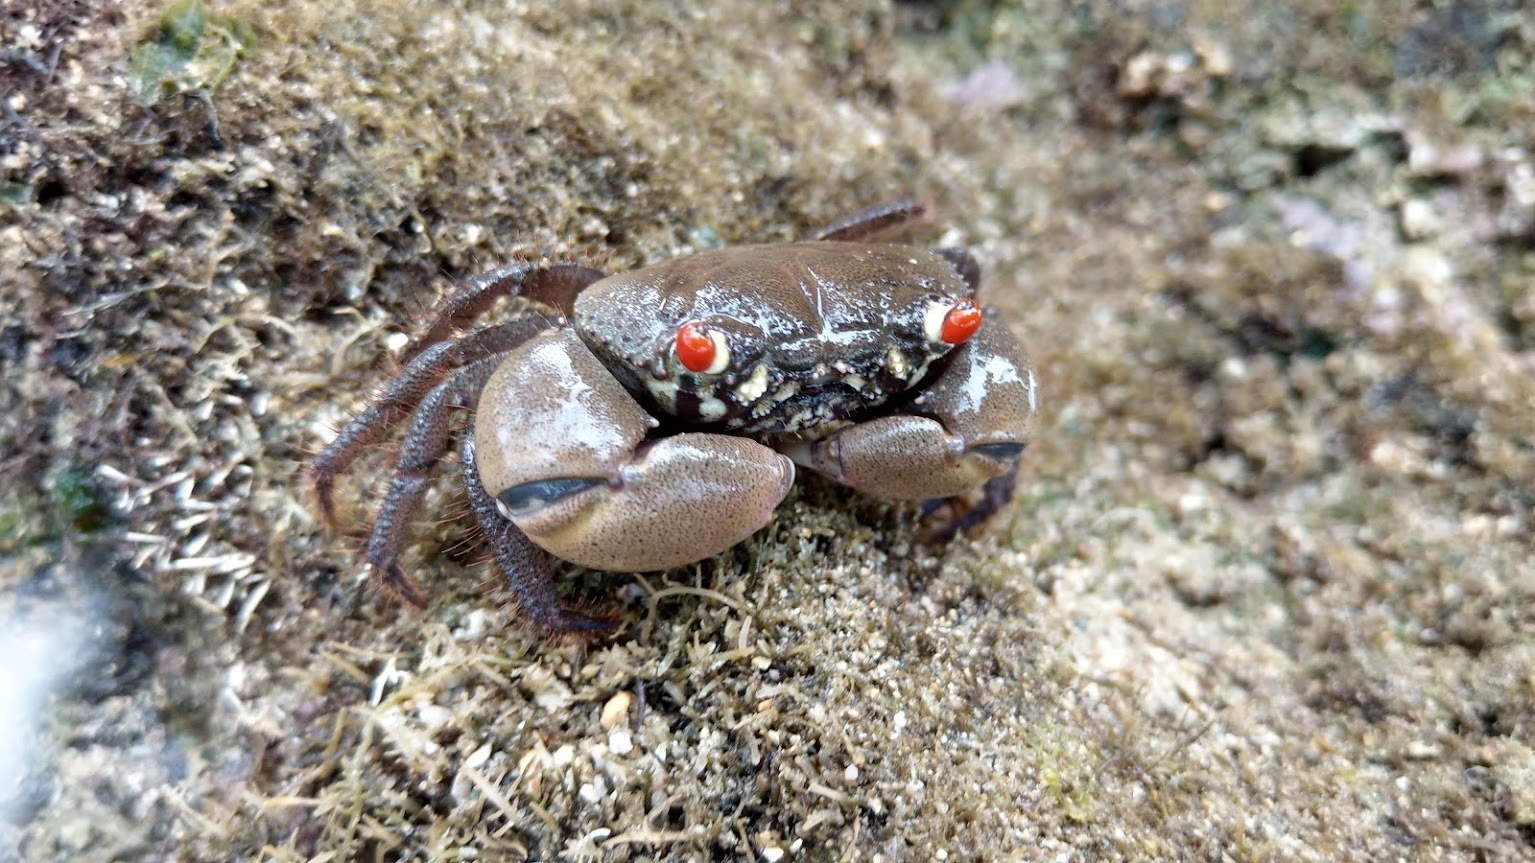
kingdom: Animalia
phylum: Arthropoda
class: Malacostraca
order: Decapoda
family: Eriphiidae
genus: Eriphia
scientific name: Eriphia sebana
